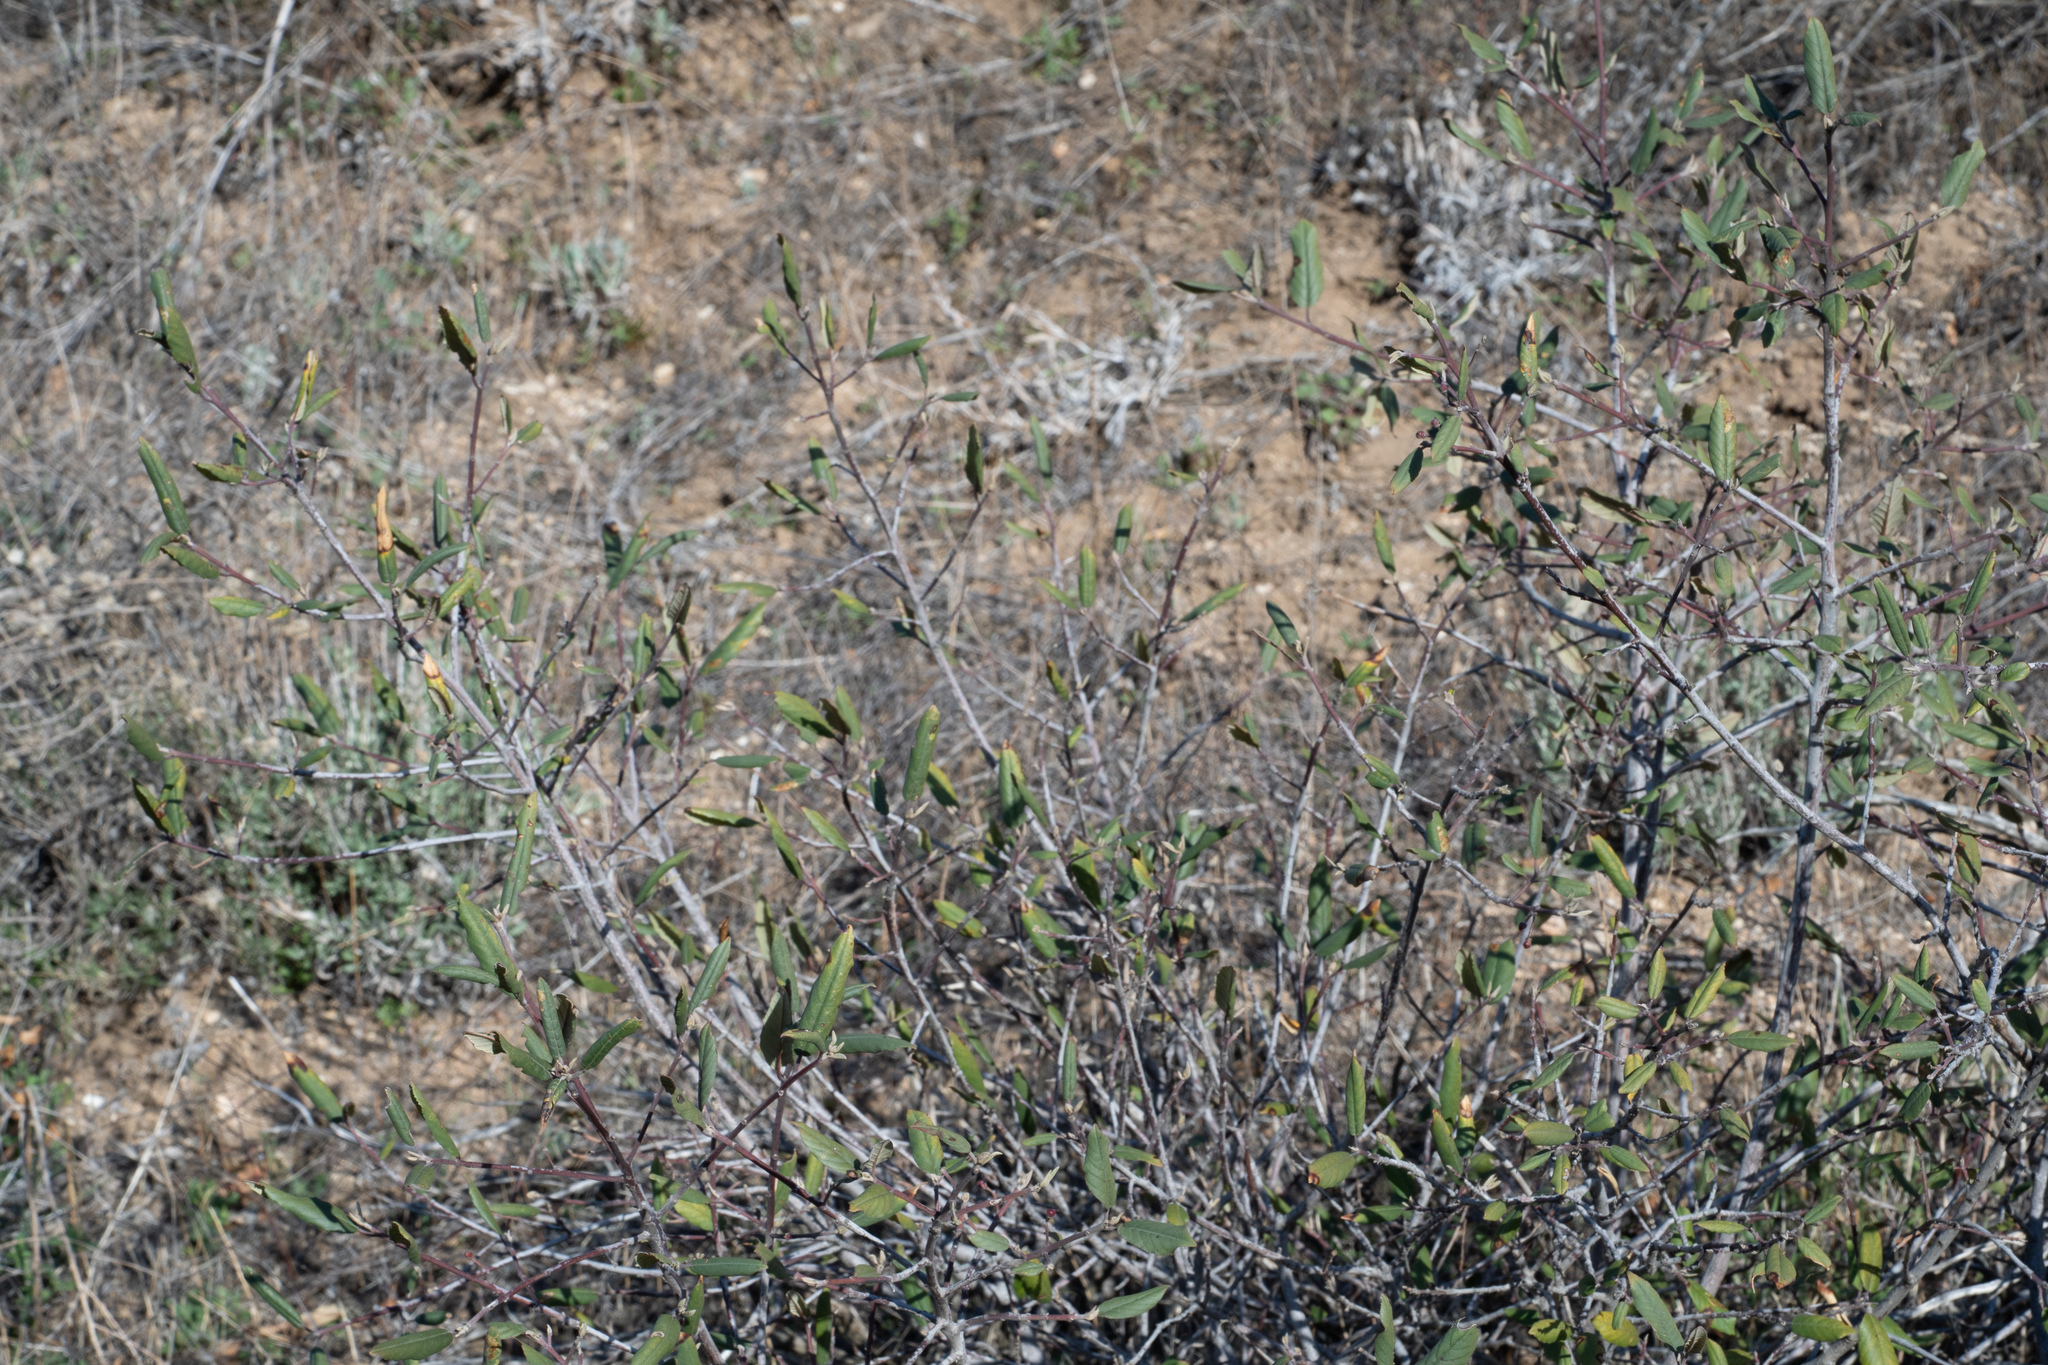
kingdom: Plantae
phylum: Tracheophyta
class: Magnoliopsida
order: Rosales
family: Rhamnaceae
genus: Frangula
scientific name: Frangula californica
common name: California buckthorn
